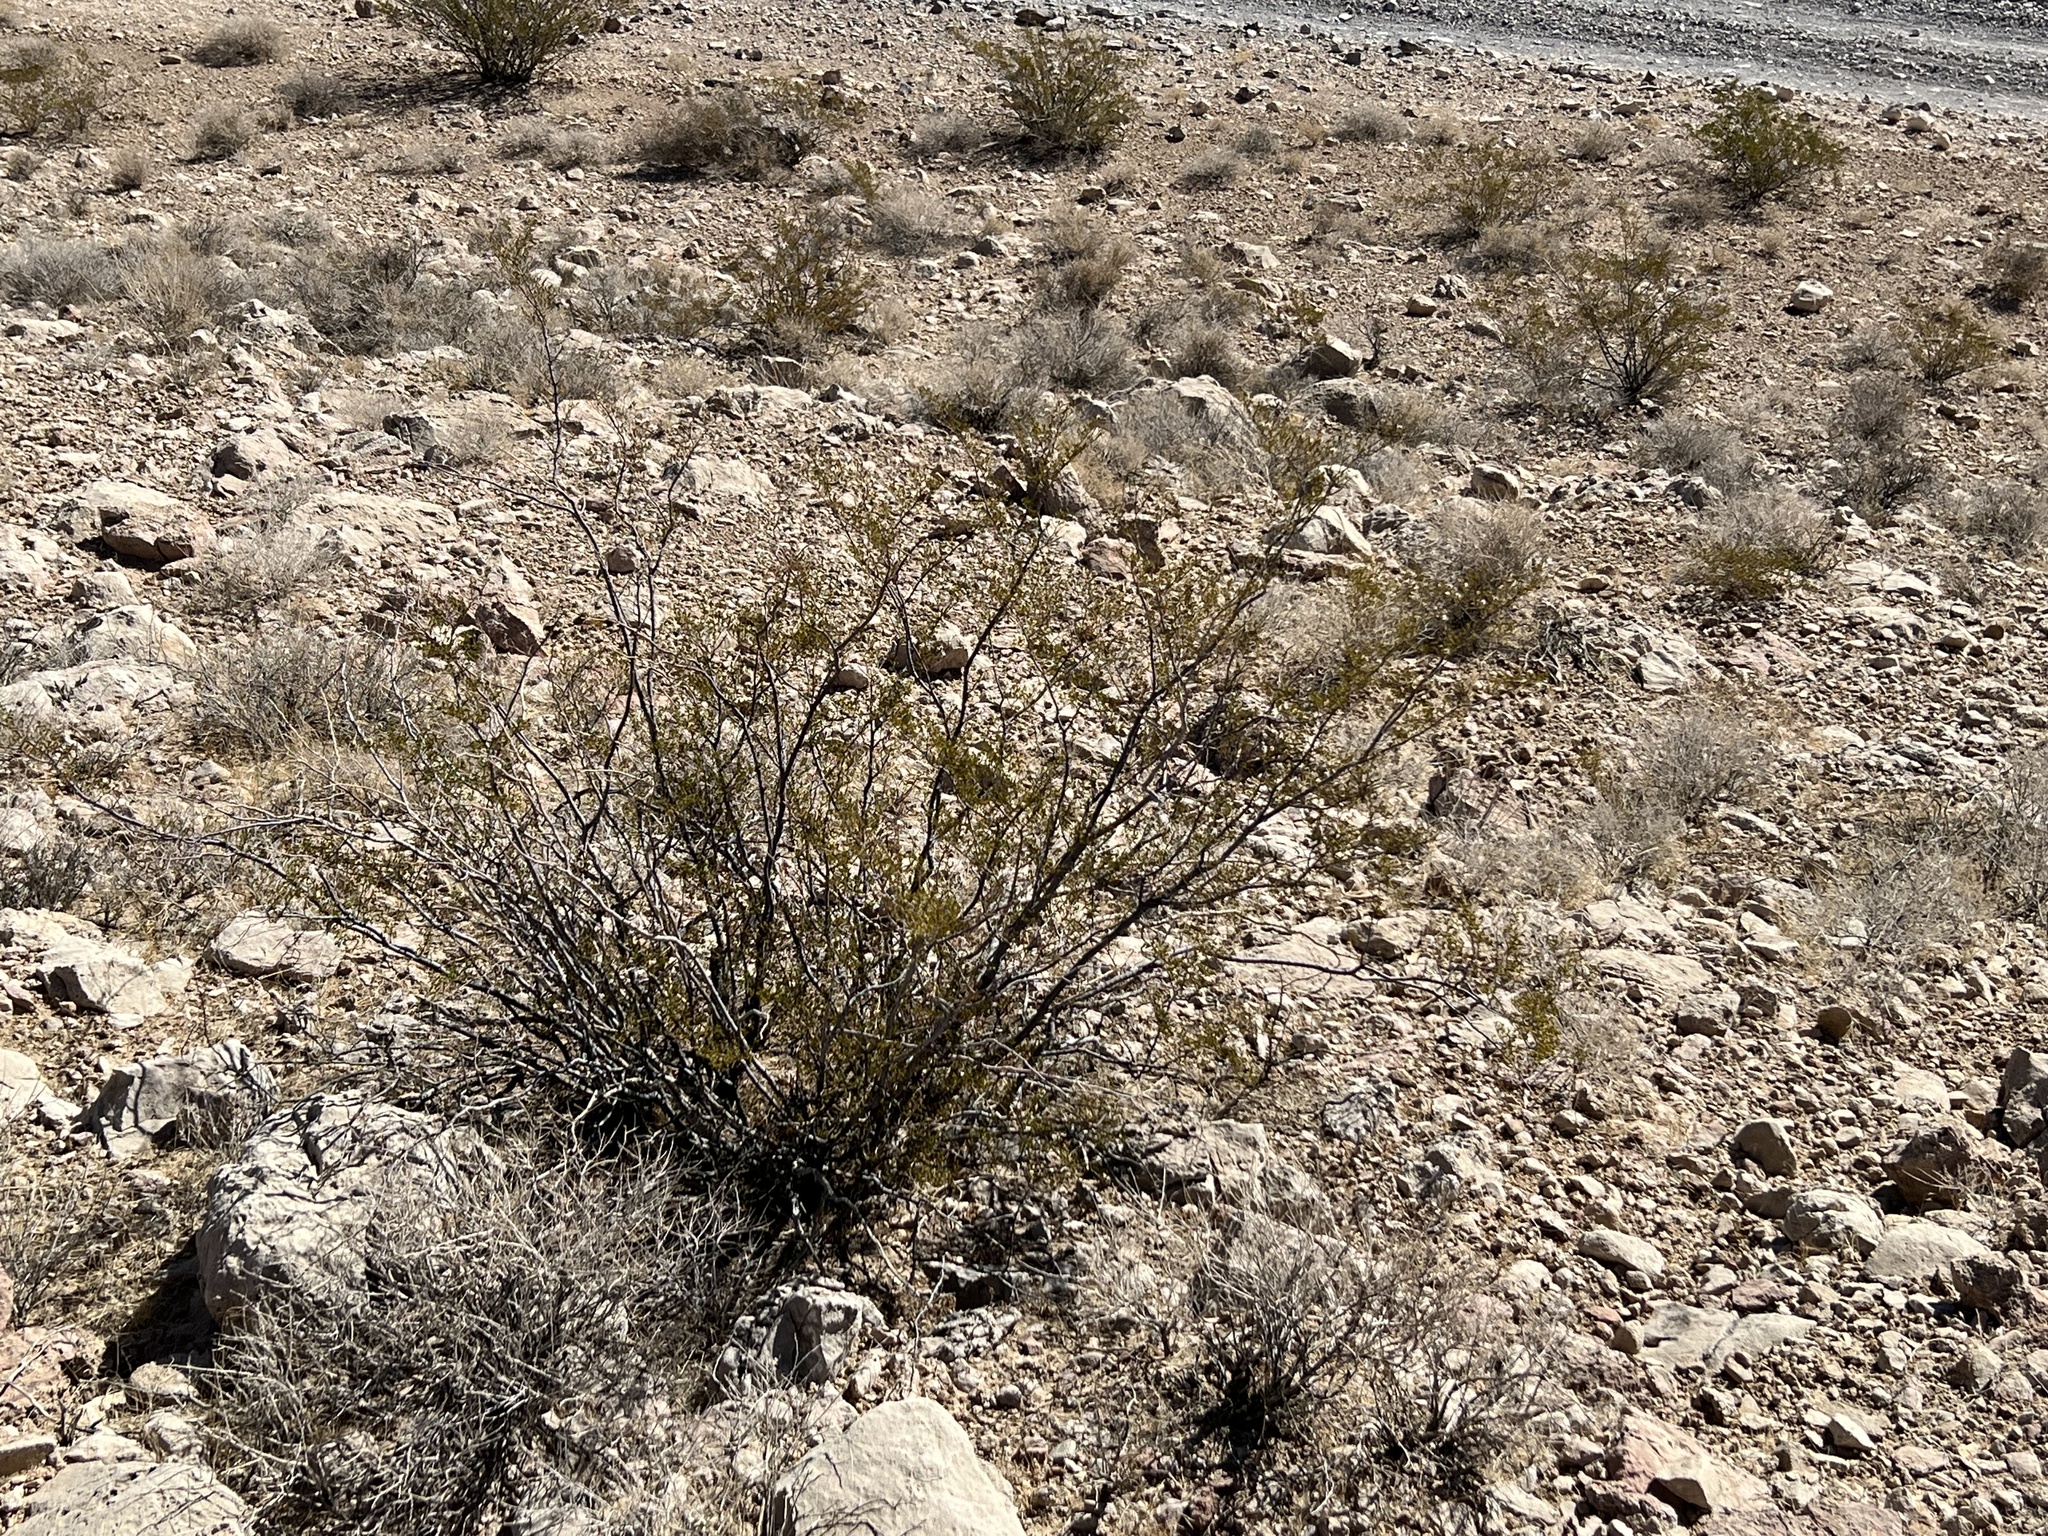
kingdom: Plantae
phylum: Tracheophyta
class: Magnoliopsida
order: Zygophyllales
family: Zygophyllaceae
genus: Larrea
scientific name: Larrea tridentata
